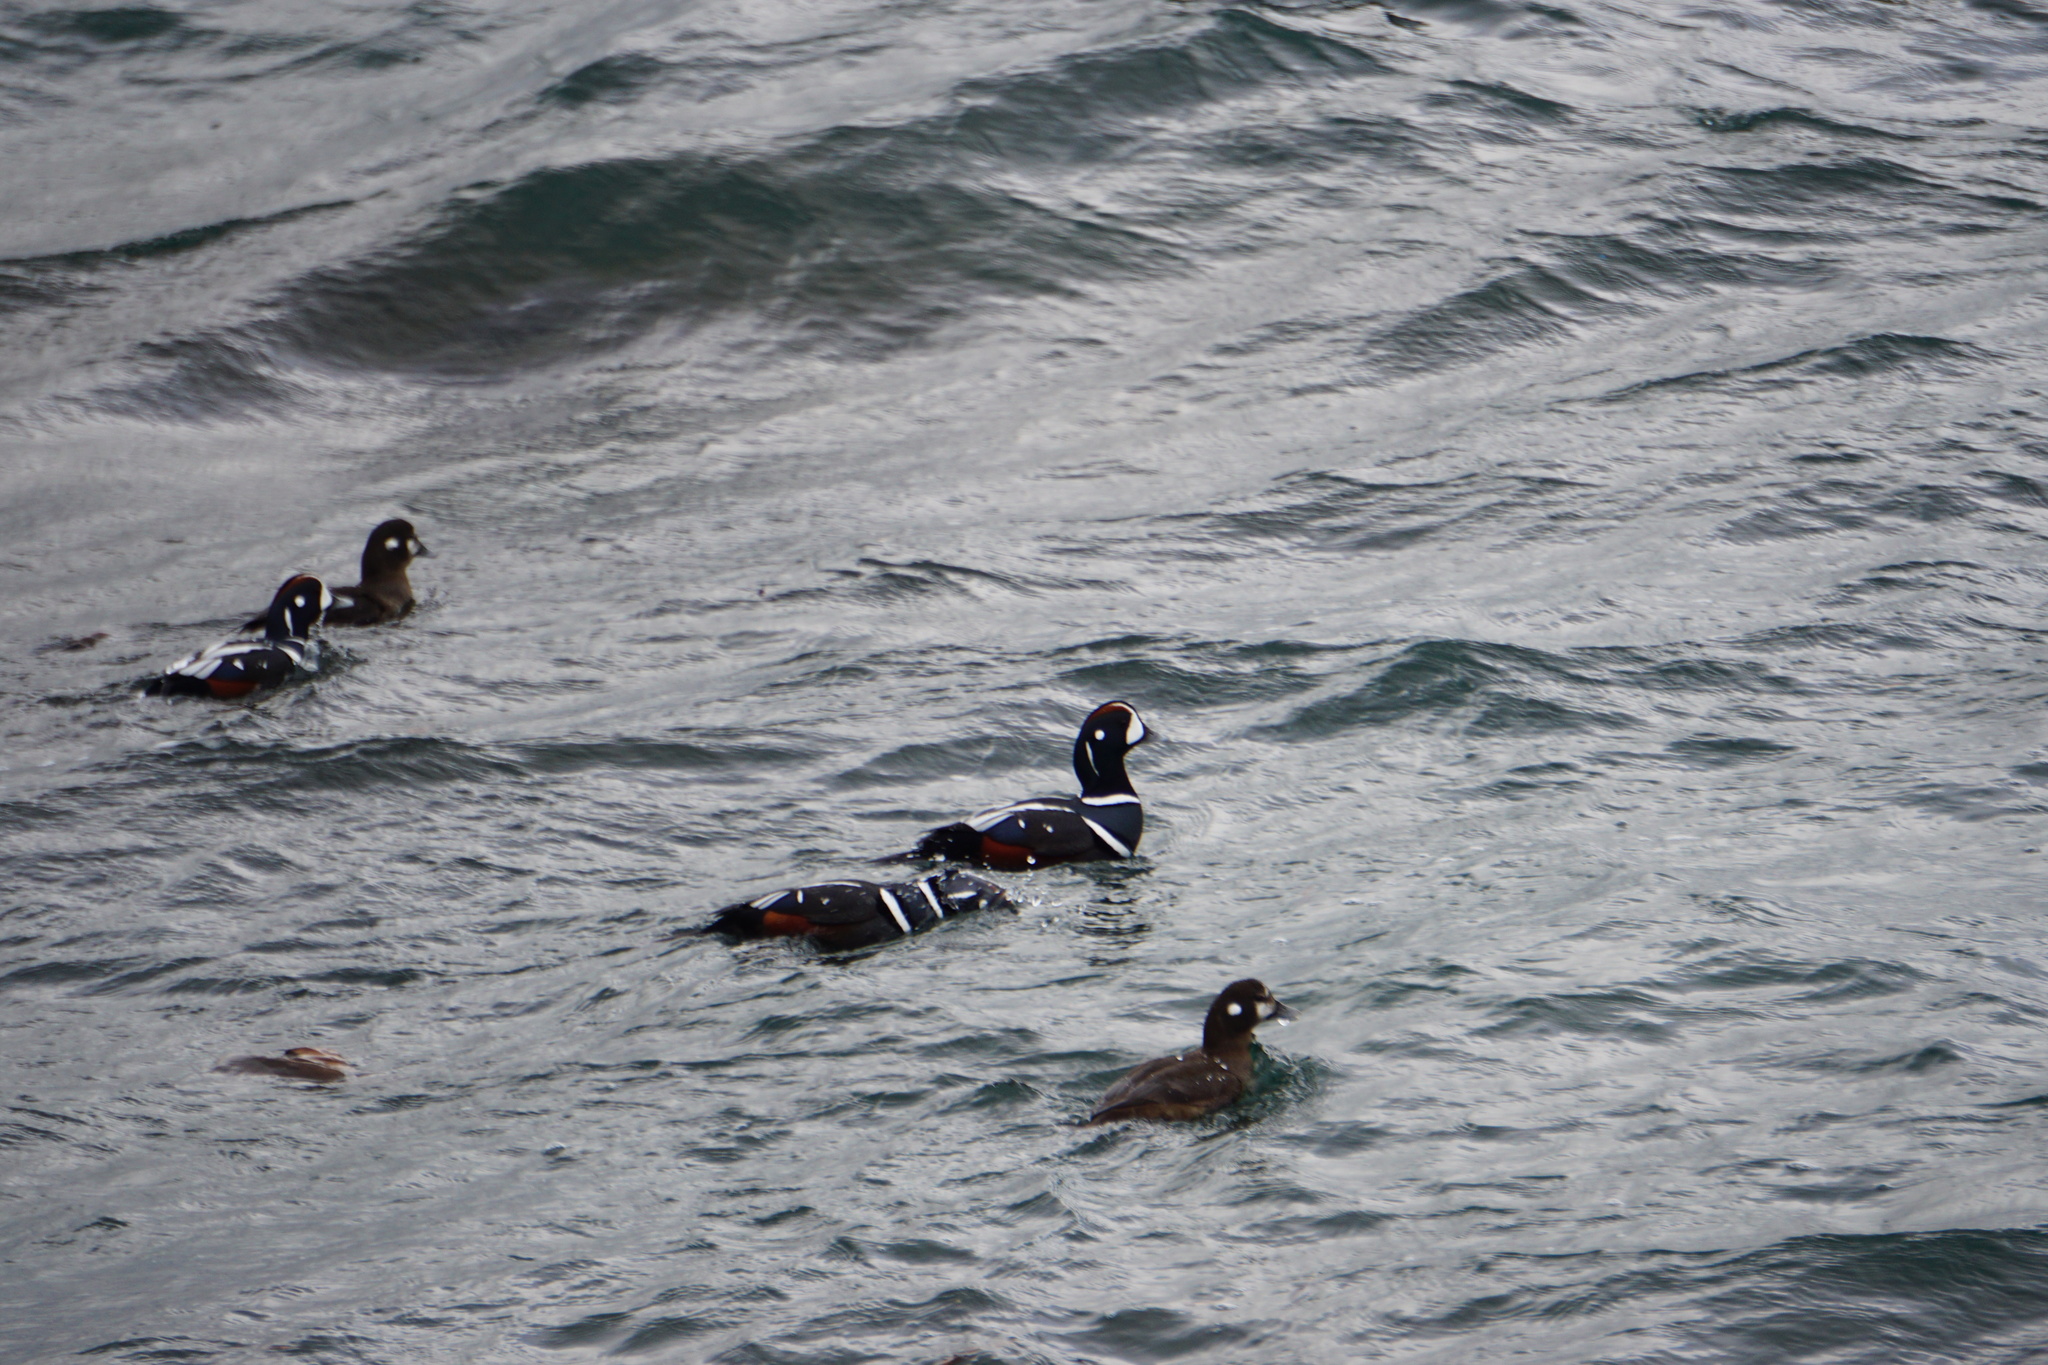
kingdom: Animalia
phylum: Chordata
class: Aves
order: Anseriformes
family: Anatidae
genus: Histrionicus
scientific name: Histrionicus histrionicus
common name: Harlequin duck
